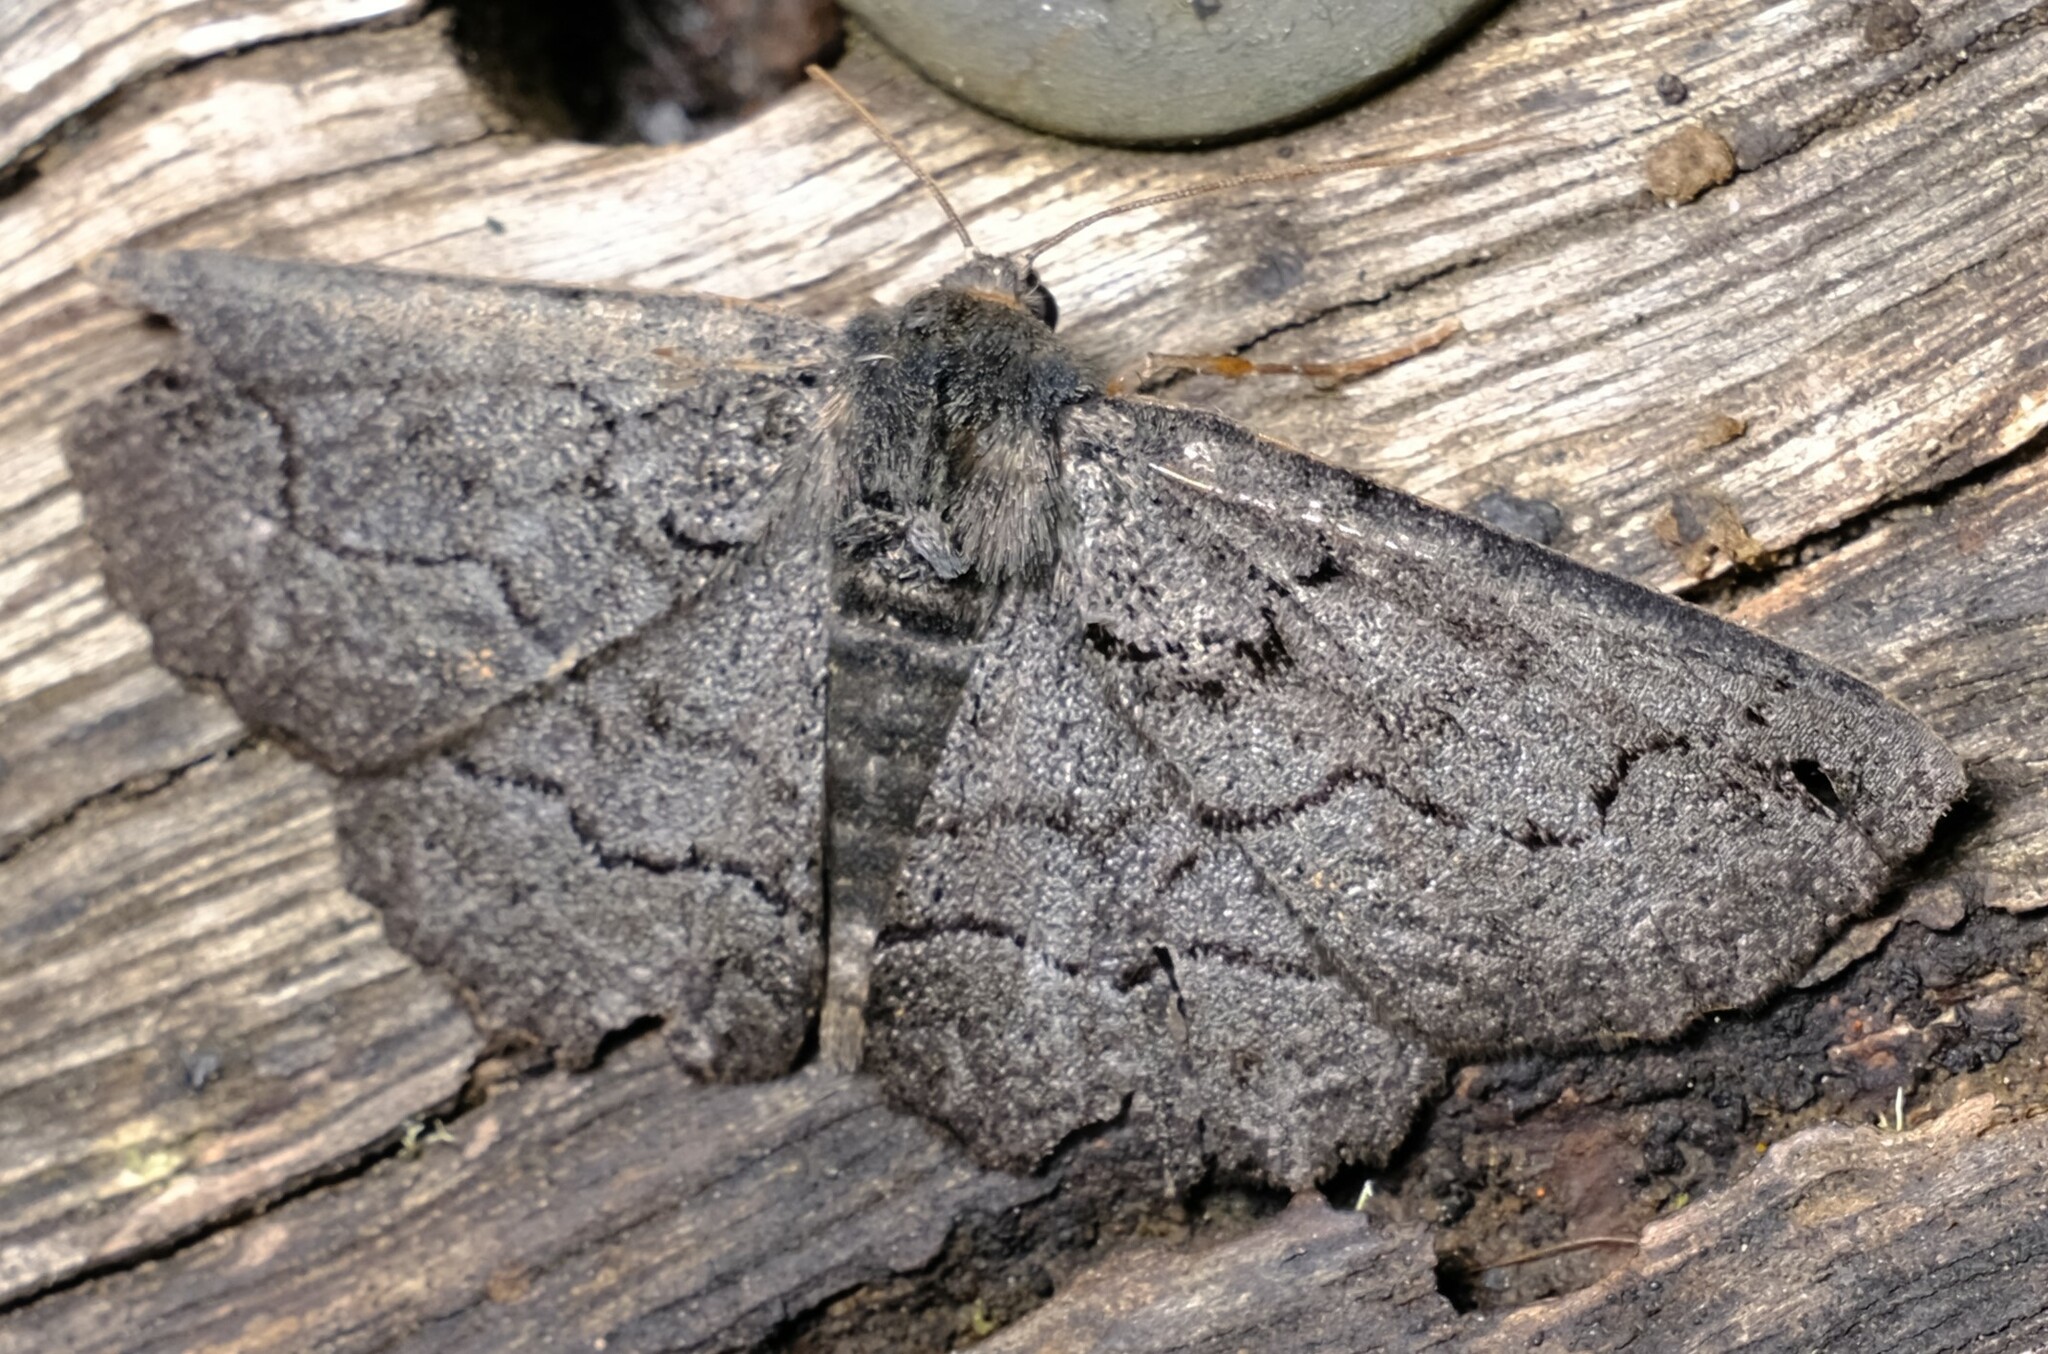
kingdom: Animalia
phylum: Arthropoda
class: Insecta
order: Lepidoptera
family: Geometridae
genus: Melanodes
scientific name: Melanodes anthracitaria
